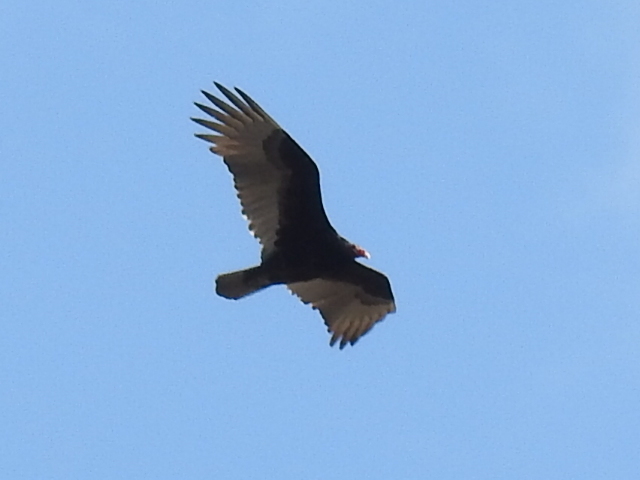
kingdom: Animalia
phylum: Chordata
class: Aves
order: Accipitriformes
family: Cathartidae
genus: Cathartes
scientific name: Cathartes aura
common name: Turkey vulture
